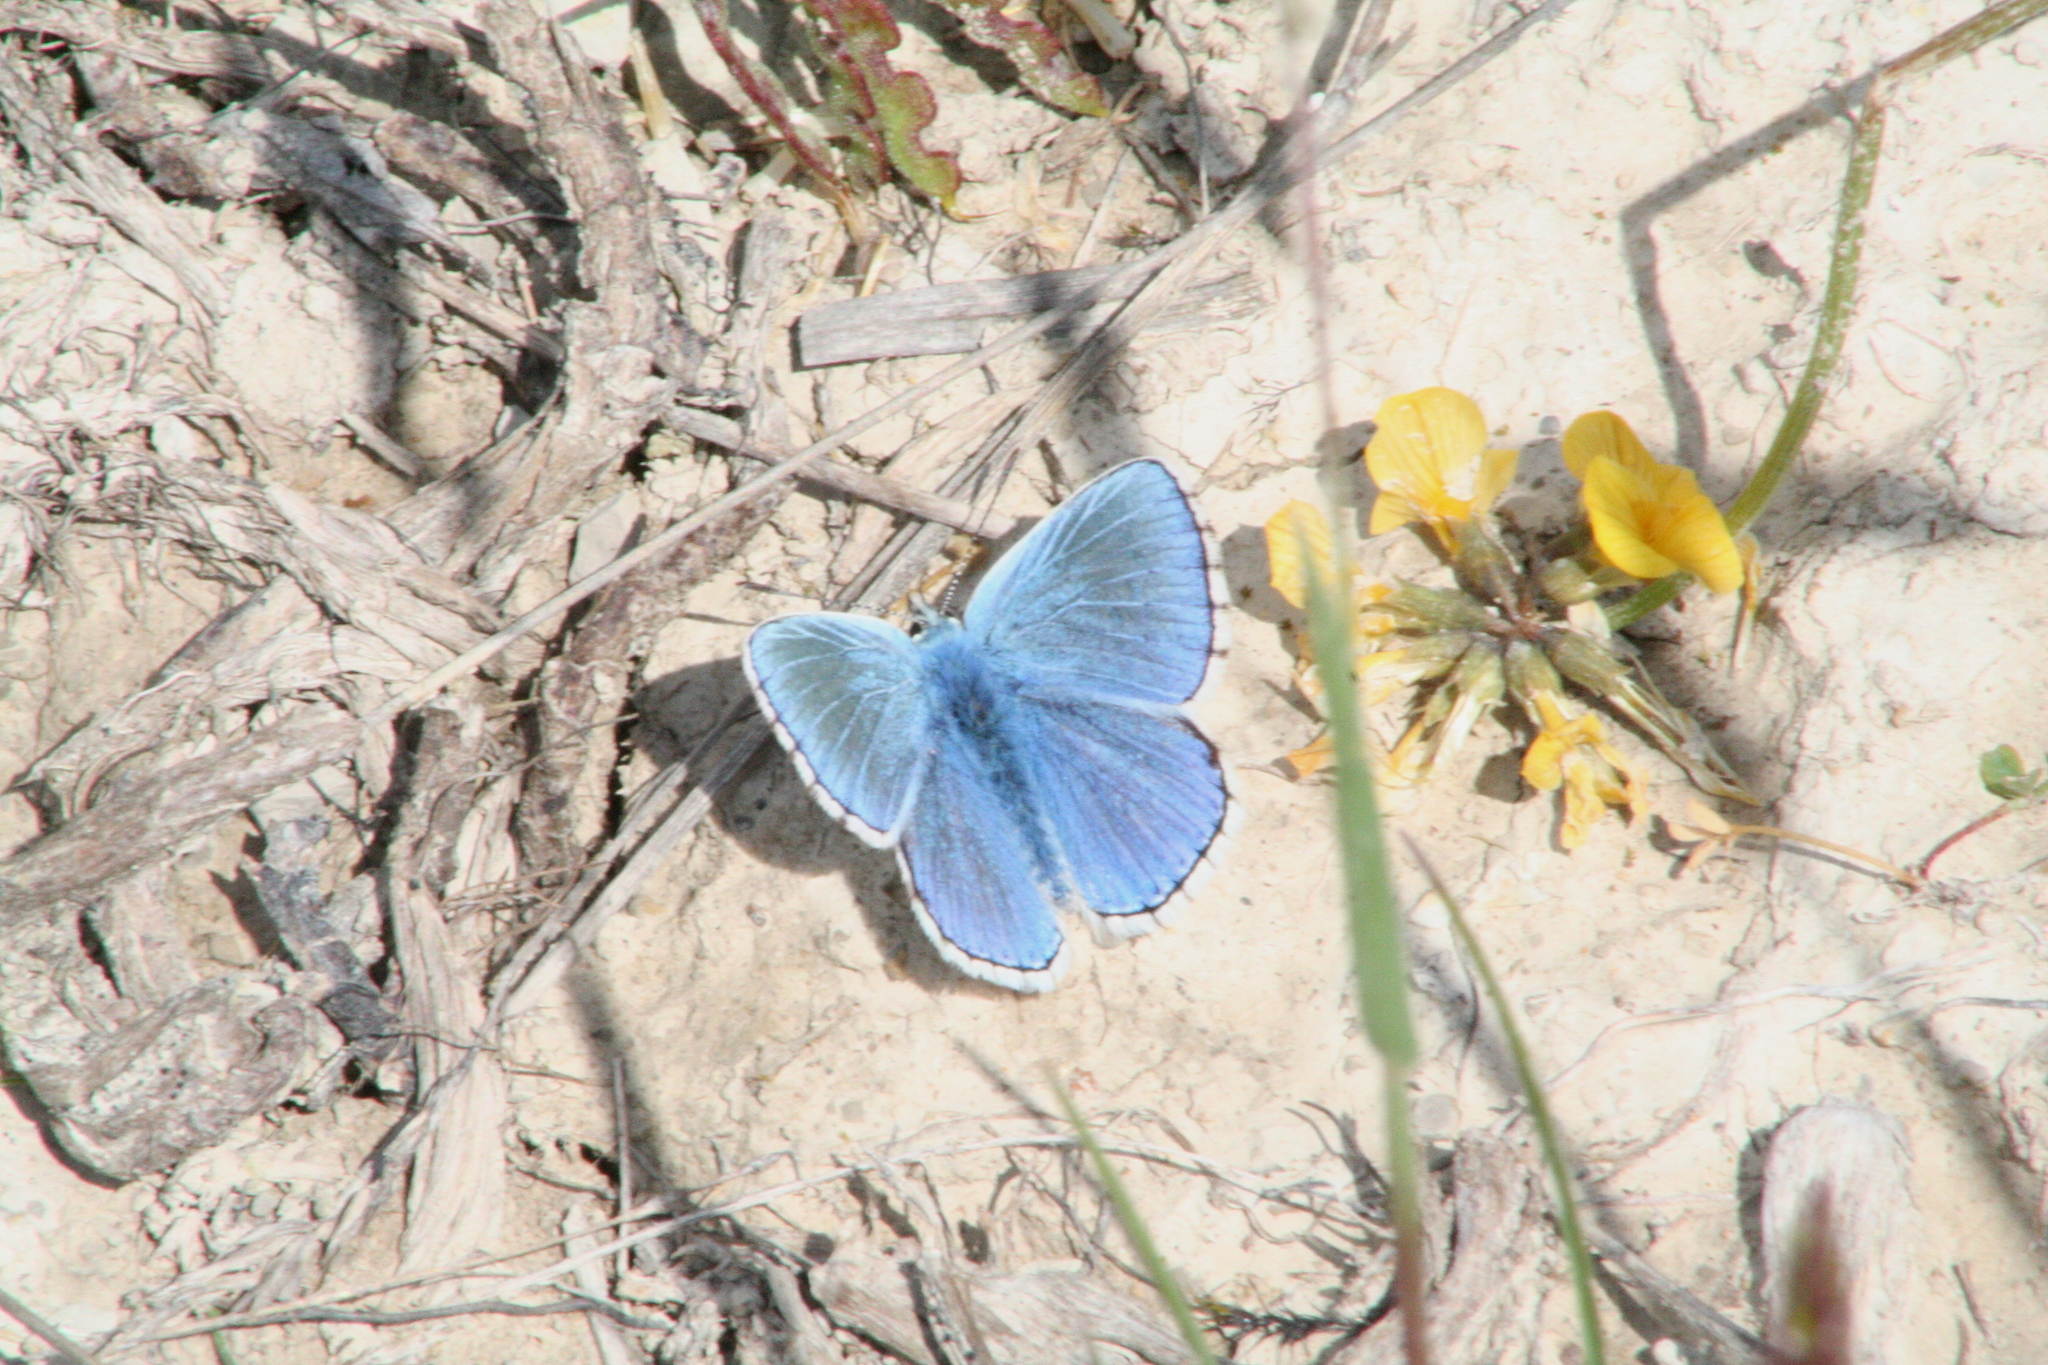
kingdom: Animalia
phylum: Arthropoda
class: Insecta
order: Lepidoptera
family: Lycaenidae
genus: Lysandra
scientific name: Lysandra bellargus
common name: Adonis blue
